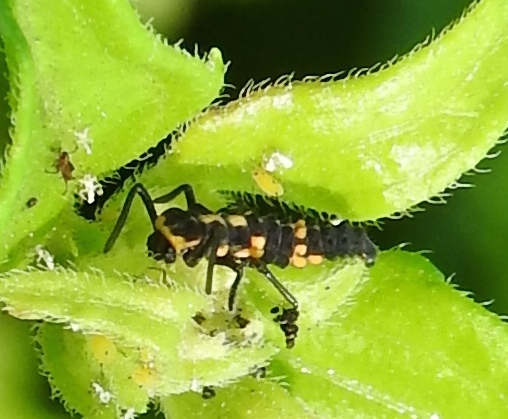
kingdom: Animalia
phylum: Arthropoda
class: Insecta
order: Coleoptera
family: Coccinellidae
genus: Coccinellina
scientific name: Coccinellina
